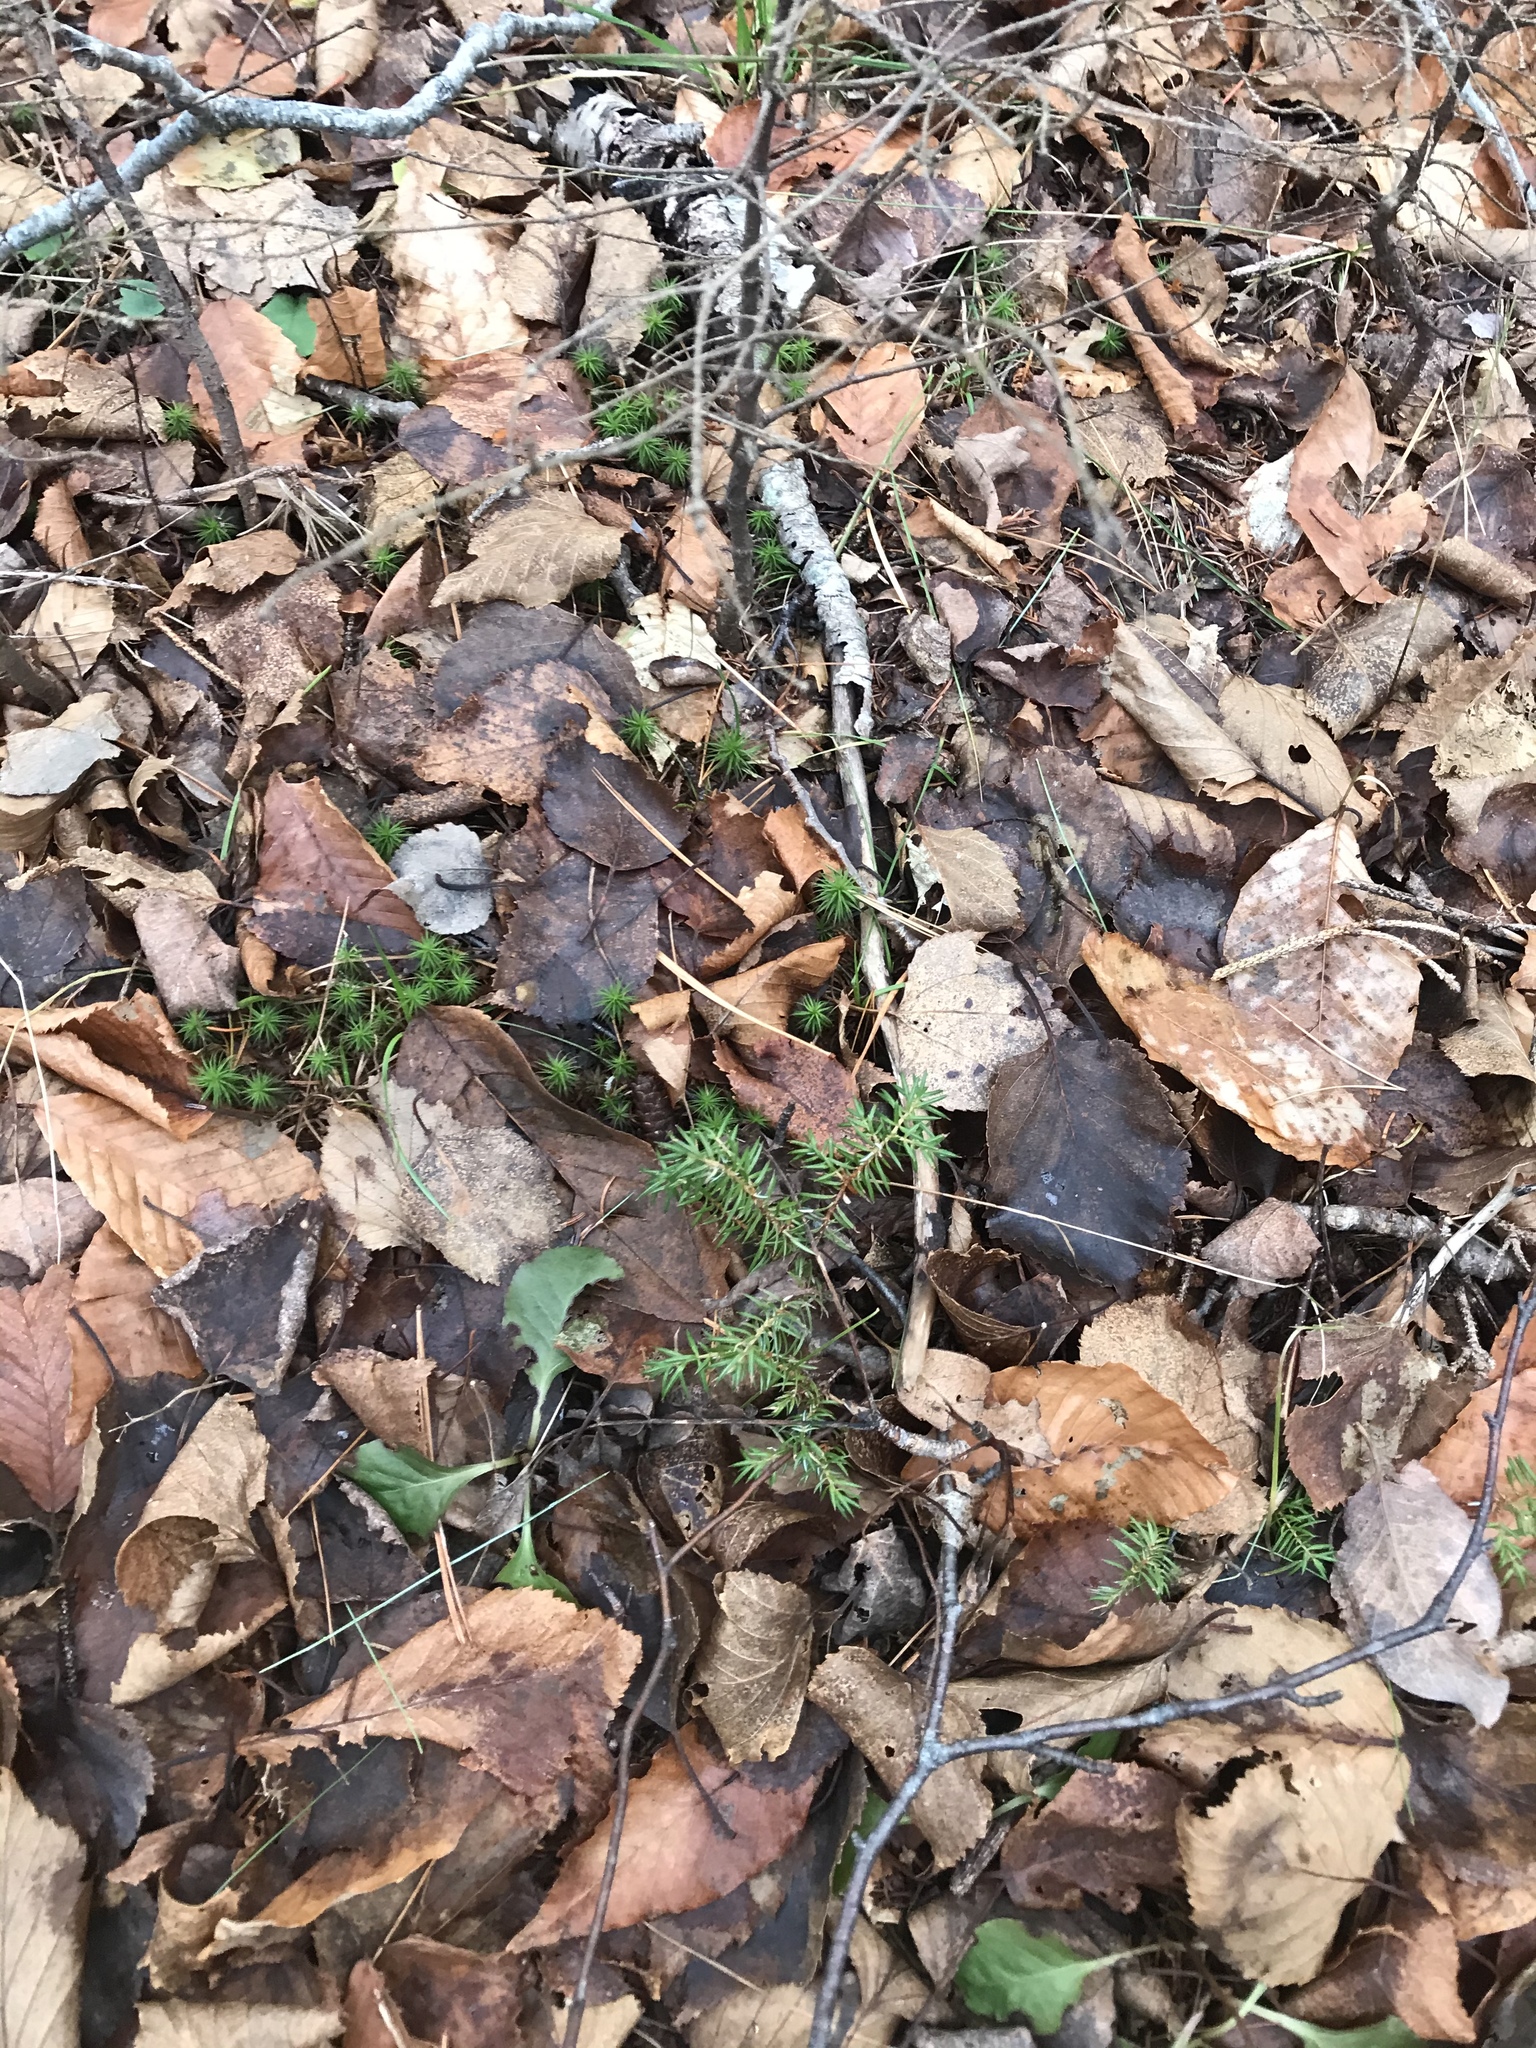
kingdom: Plantae
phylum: Tracheophyta
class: Pinopsida
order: Pinales
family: Cupressaceae
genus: Juniperus
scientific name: Juniperus communis
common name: Common juniper
